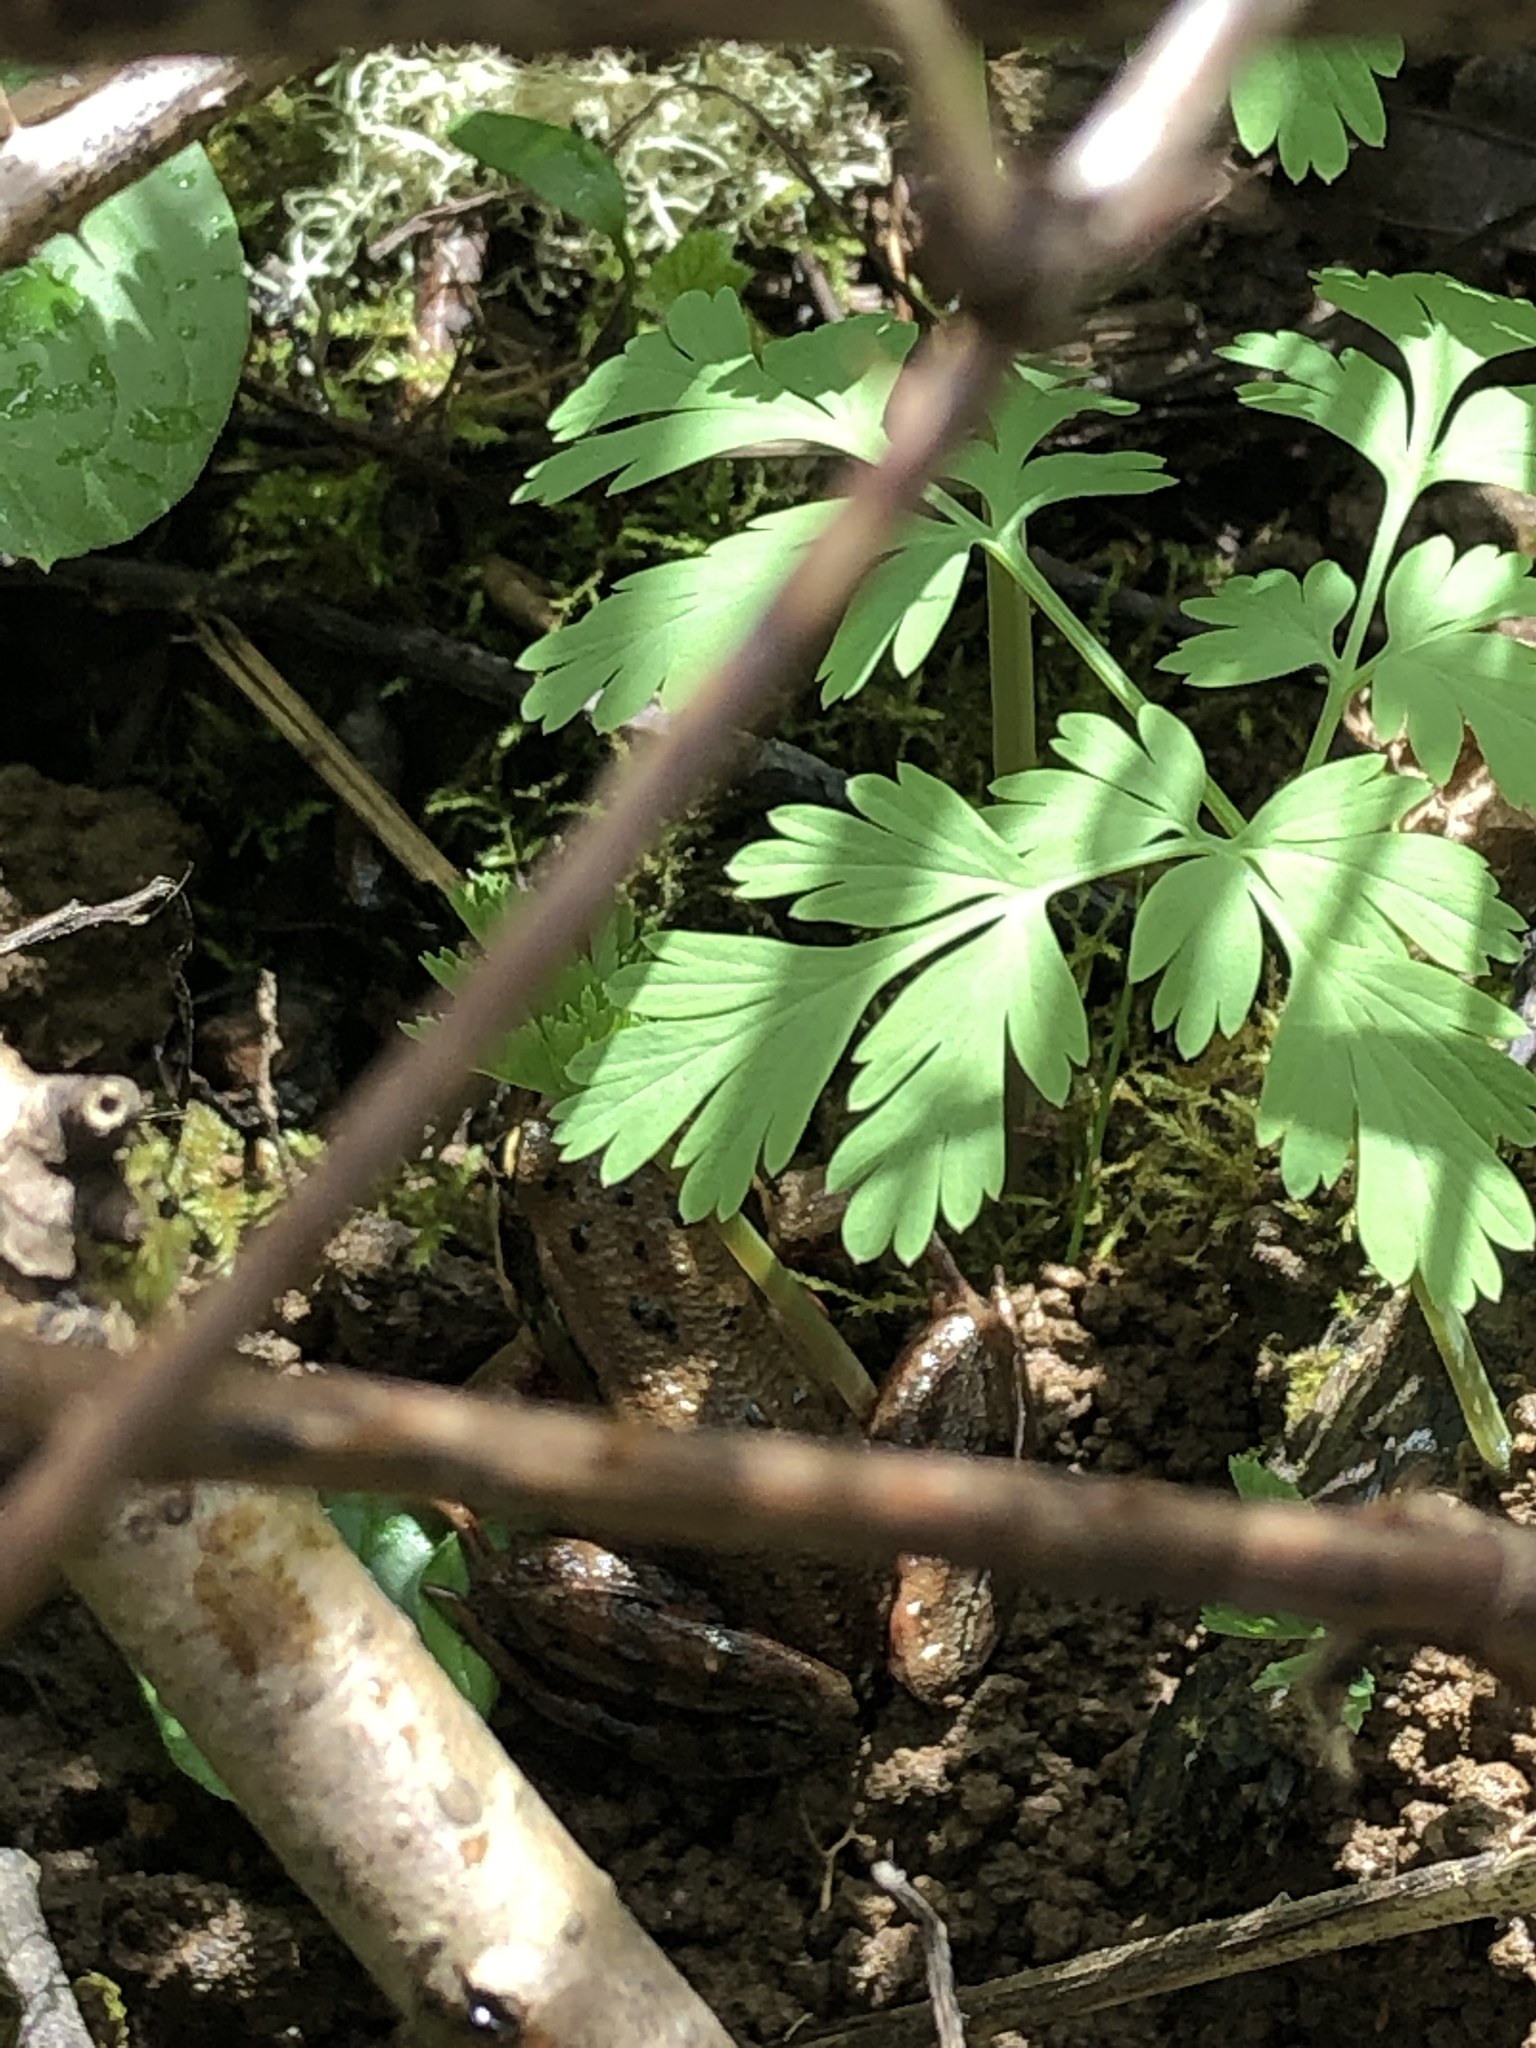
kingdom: Animalia
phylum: Chordata
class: Amphibia
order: Anura
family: Ranidae
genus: Rana
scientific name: Rana aurora
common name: Red-legged frog
